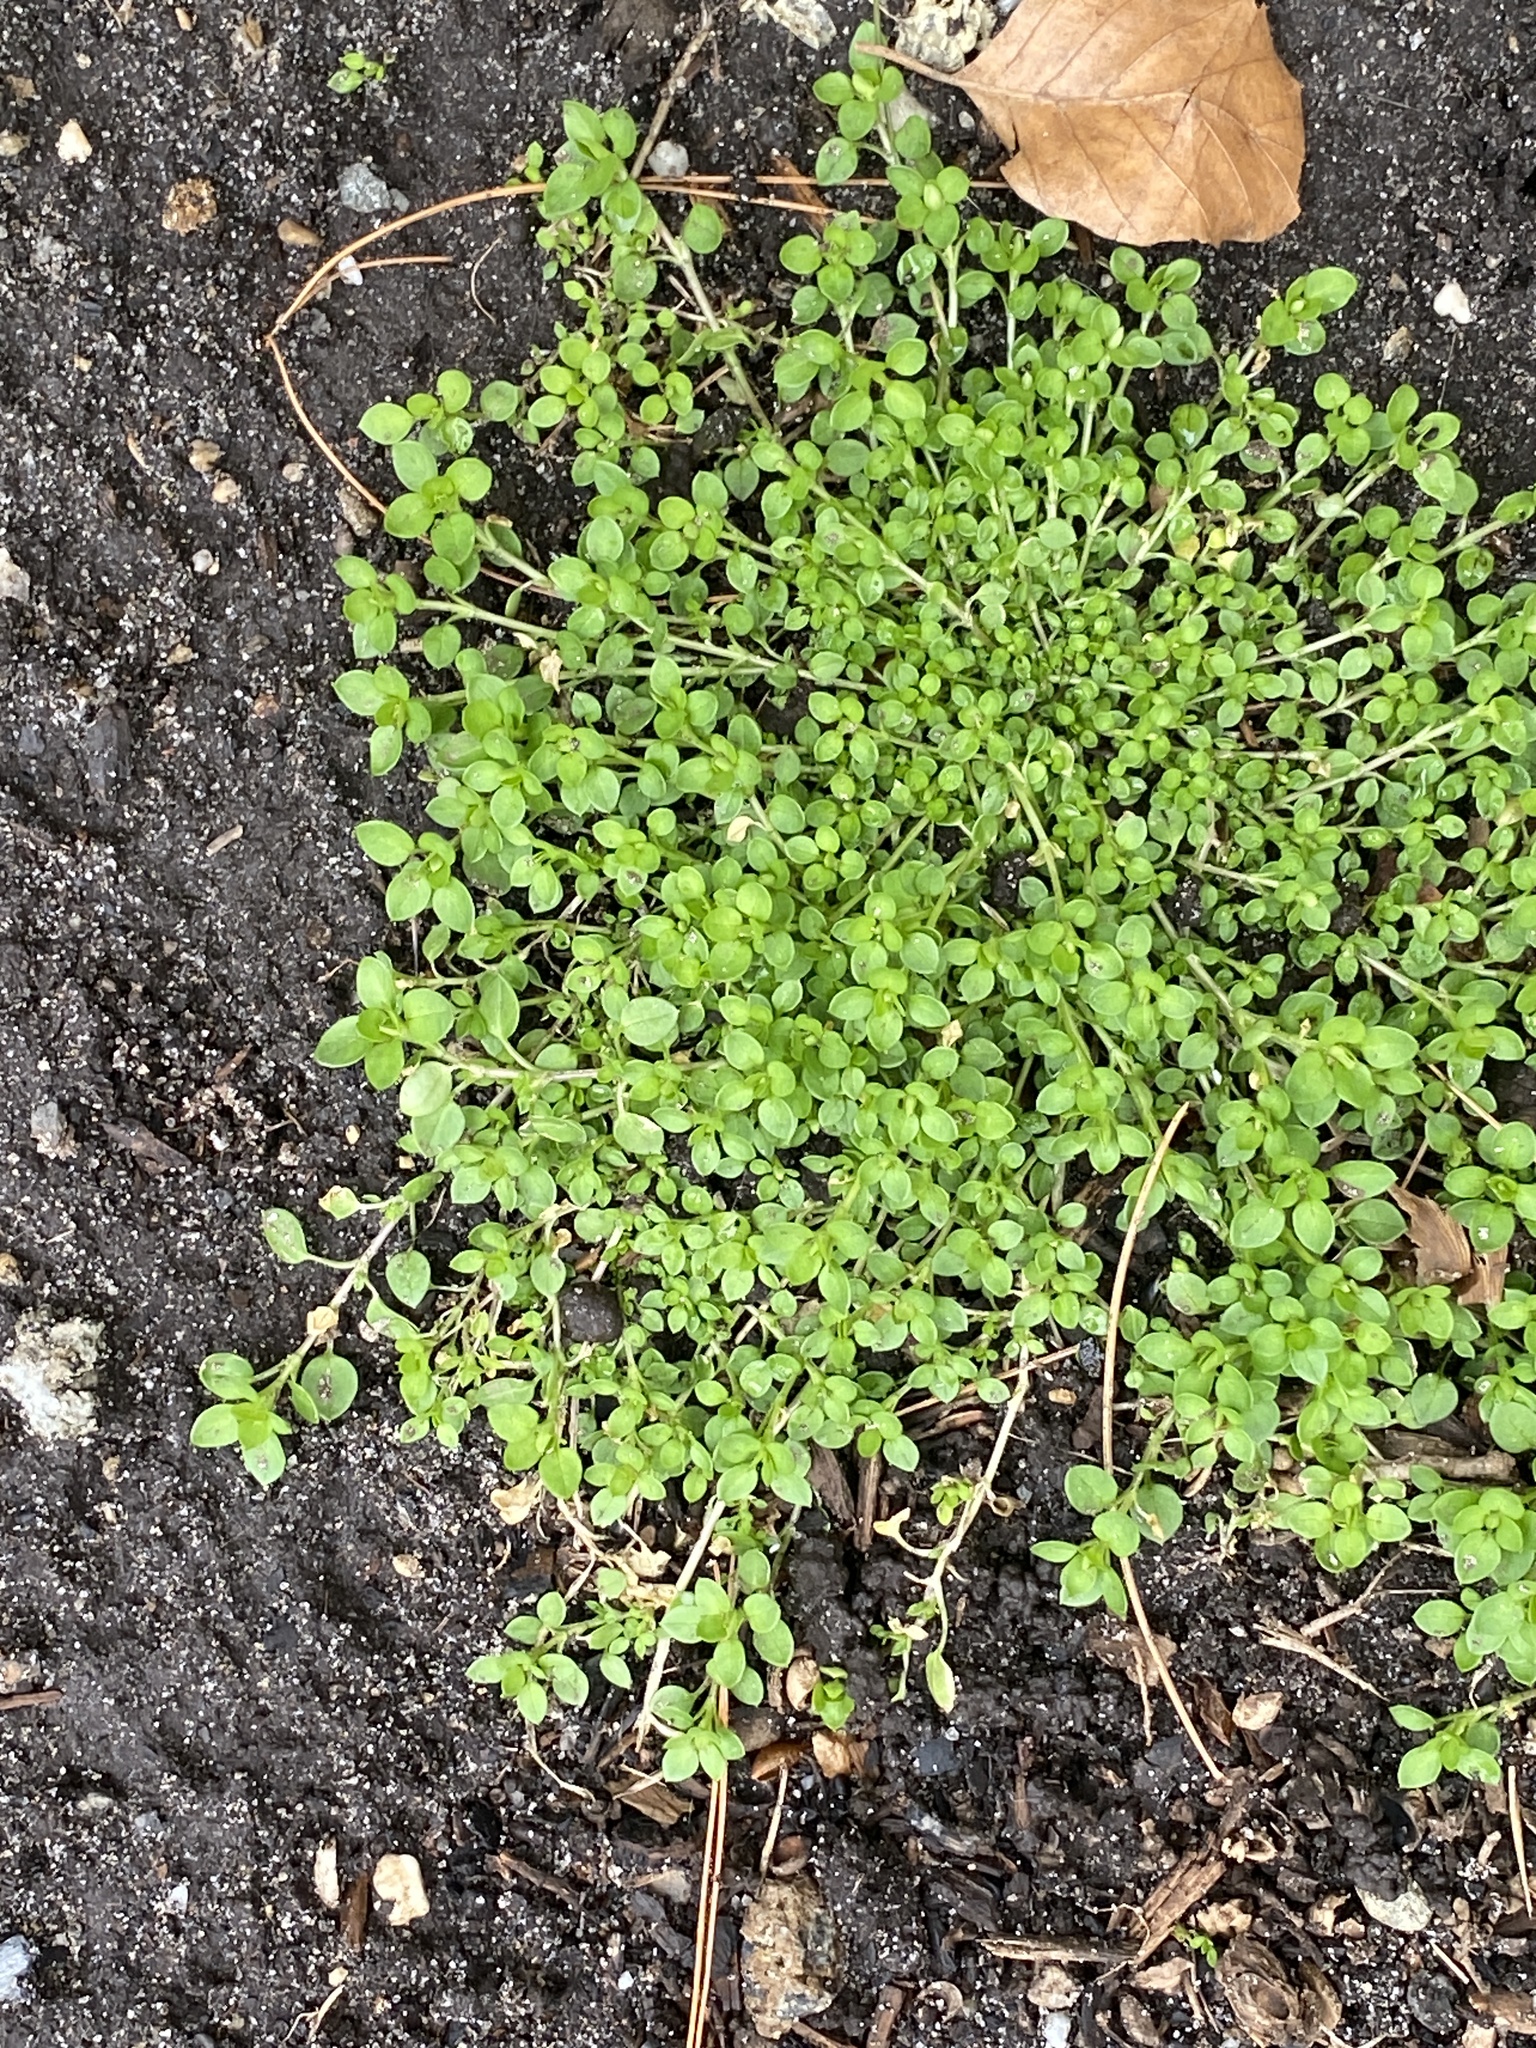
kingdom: Plantae
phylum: Tracheophyta
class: Magnoliopsida
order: Caryophyllales
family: Caryophyllaceae
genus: Stellaria
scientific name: Stellaria media
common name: Common chickweed
